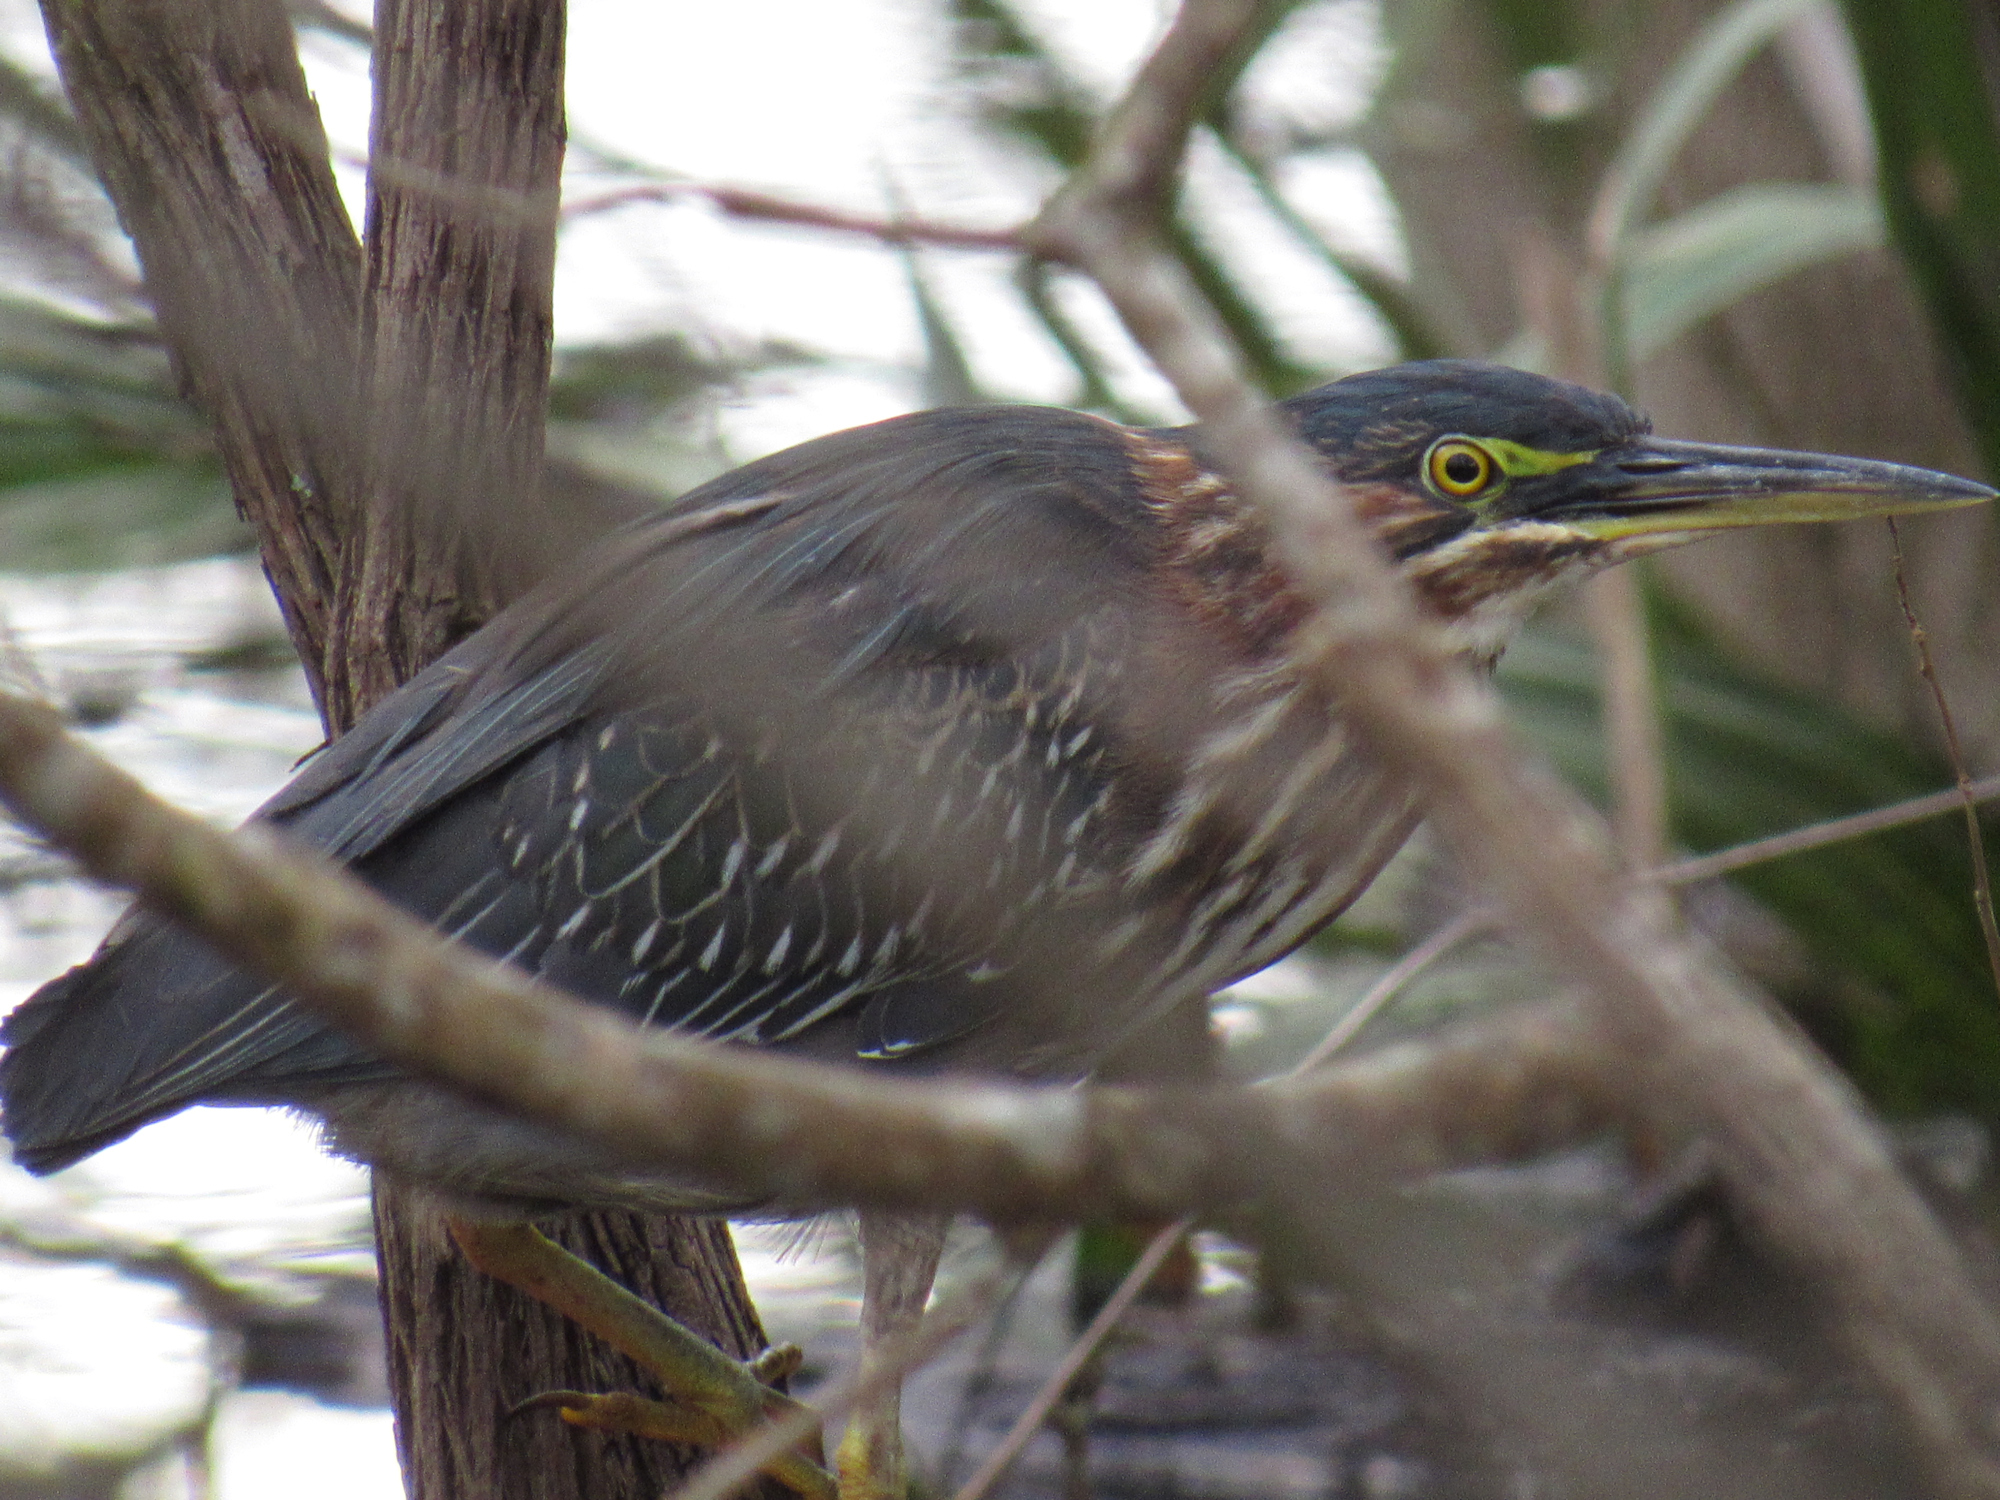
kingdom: Animalia
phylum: Chordata
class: Aves
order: Pelecaniformes
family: Ardeidae
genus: Butorides
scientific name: Butorides virescens
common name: Green heron
